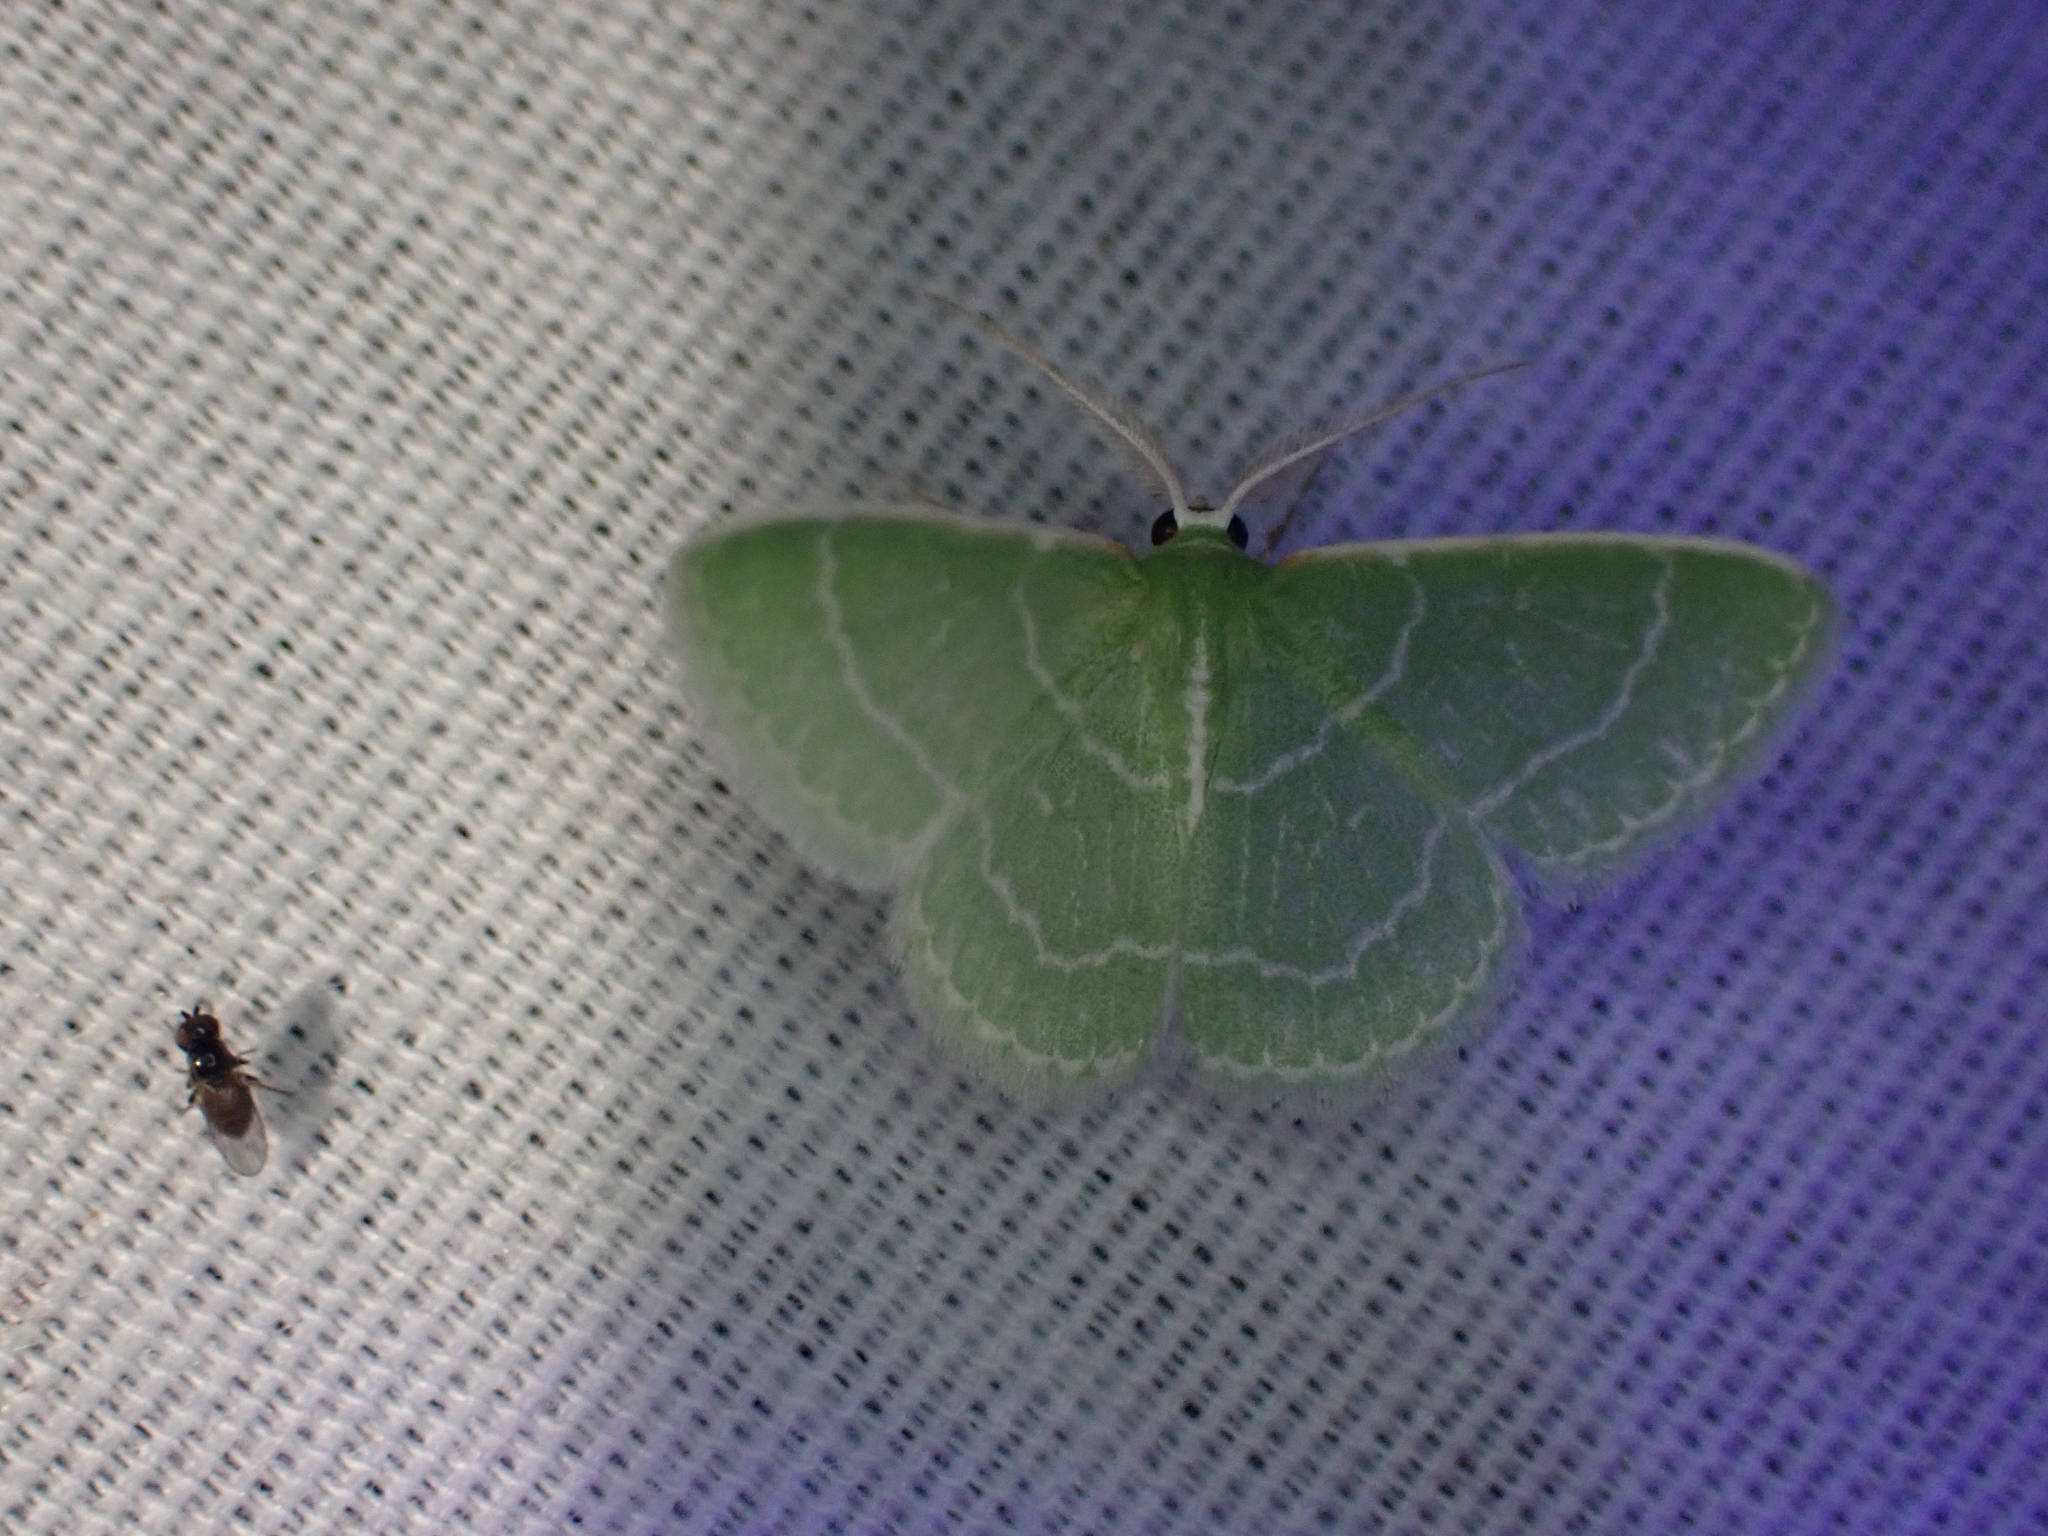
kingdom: Animalia
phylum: Arthropoda
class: Insecta
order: Lepidoptera
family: Geometridae
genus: Synchlora
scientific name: Synchlora aerata
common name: Wavy-lined emerald
